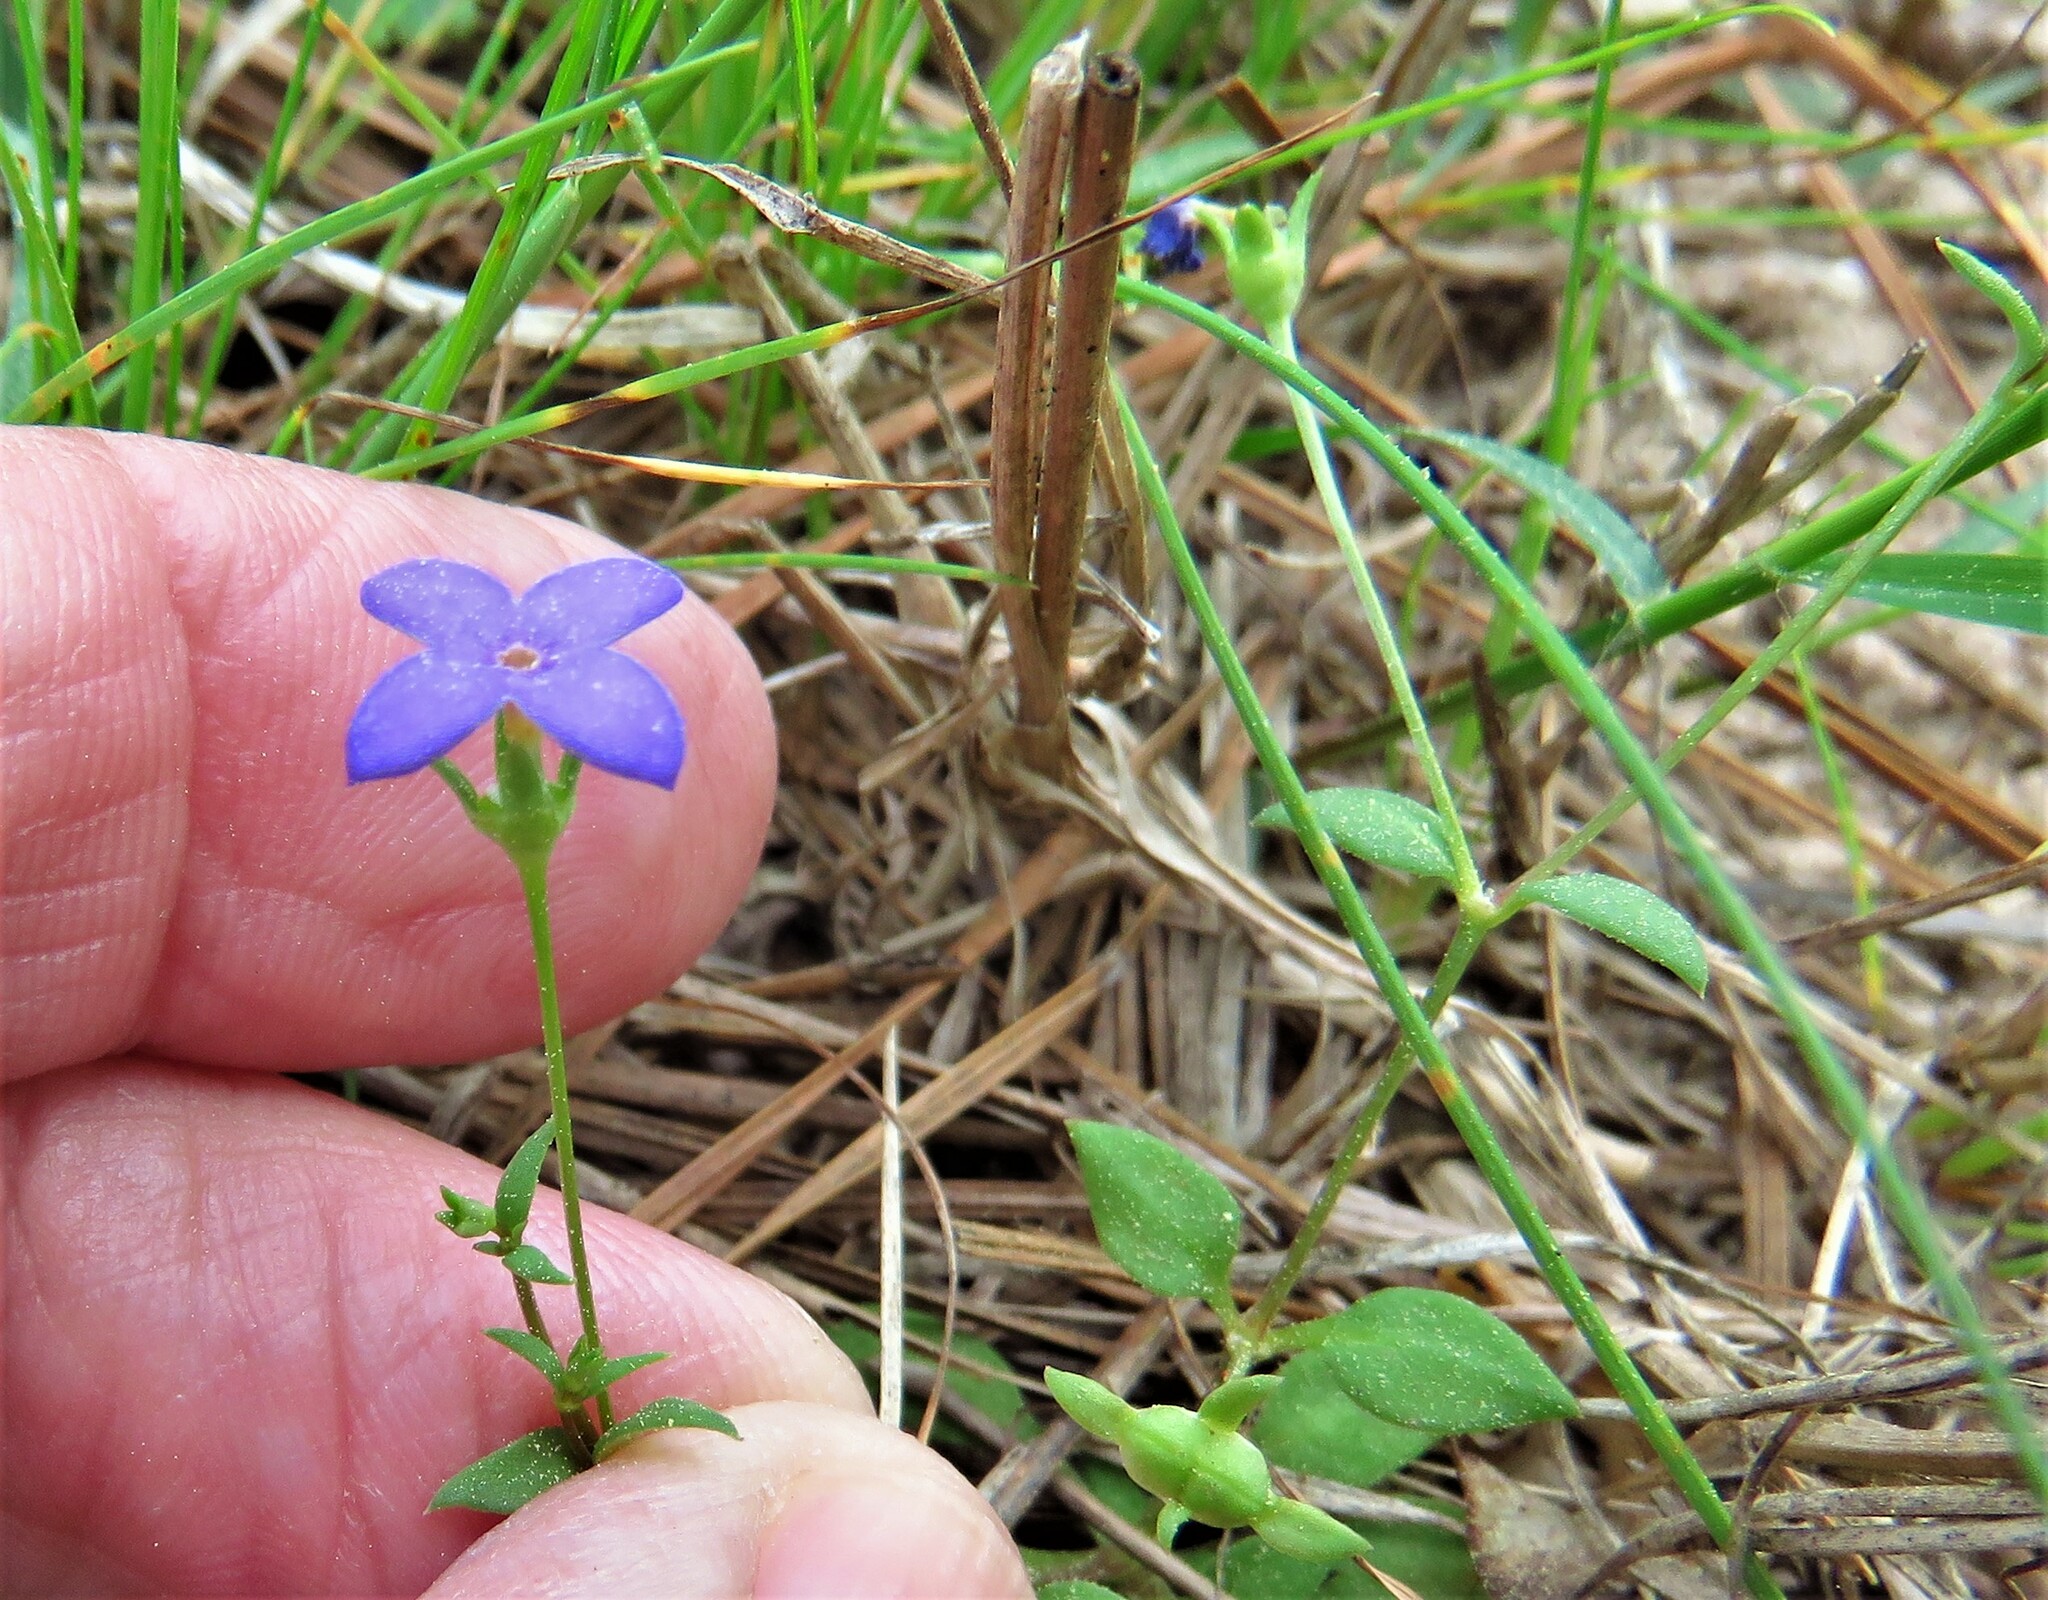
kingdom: Plantae
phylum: Tracheophyta
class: Magnoliopsida
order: Gentianales
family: Rubiaceae
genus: Houstonia
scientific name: Houstonia pusilla
